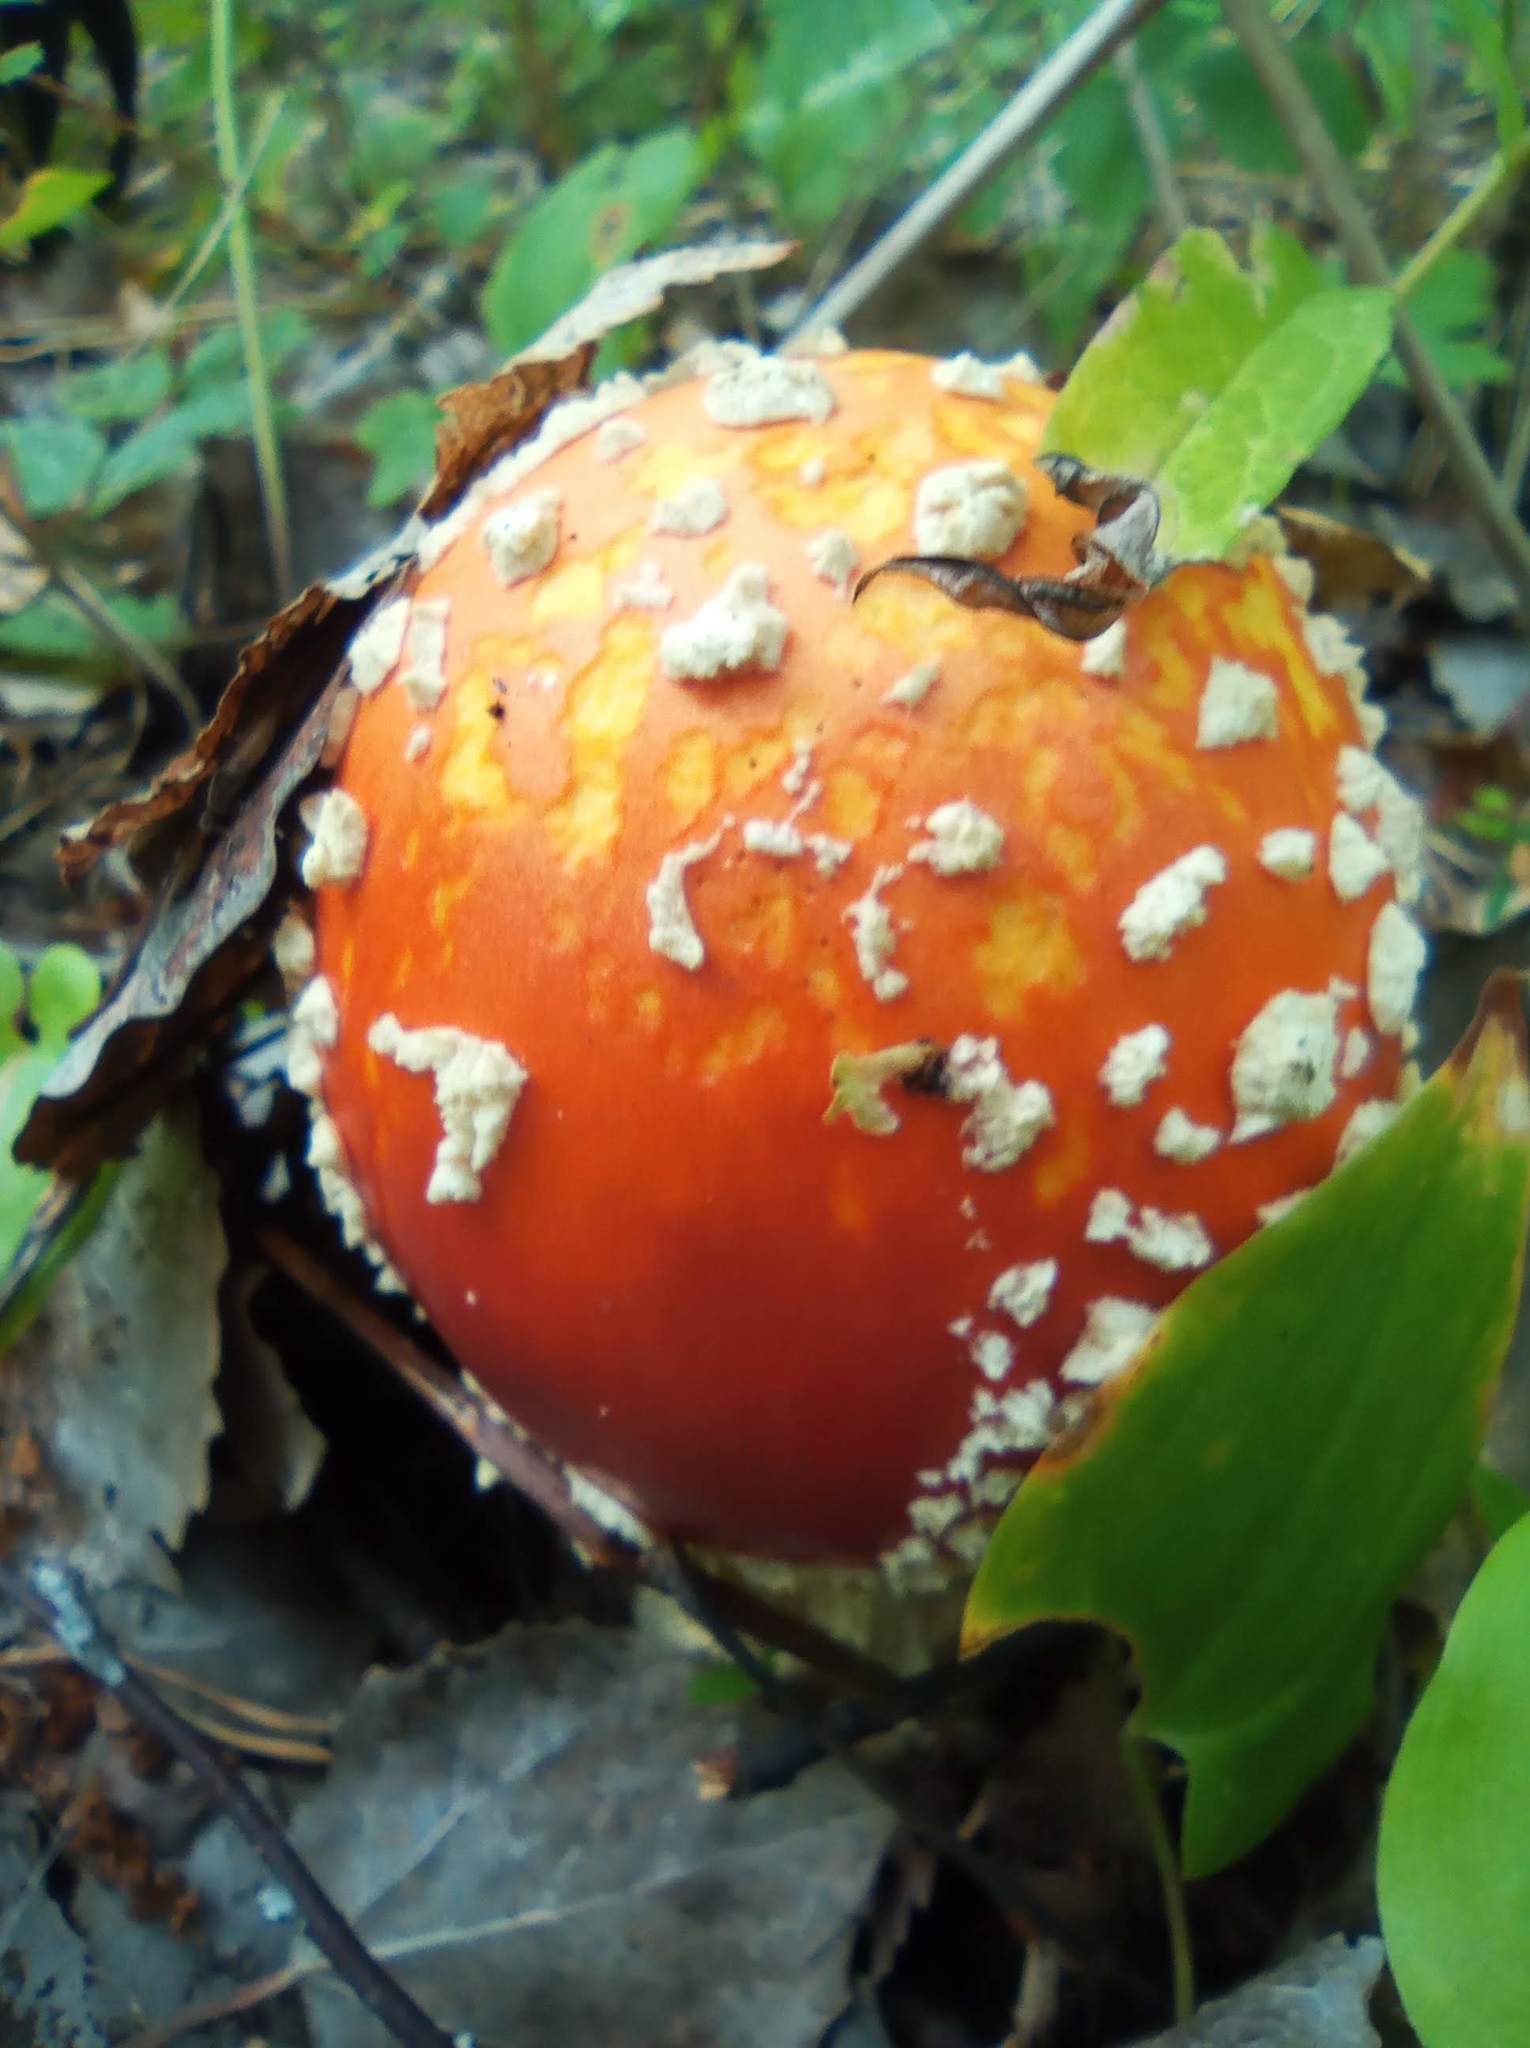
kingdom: Fungi
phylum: Basidiomycota
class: Agaricomycetes
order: Agaricales
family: Amanitaceae
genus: Amanita
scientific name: Amanita muscaria
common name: Fly agaric
